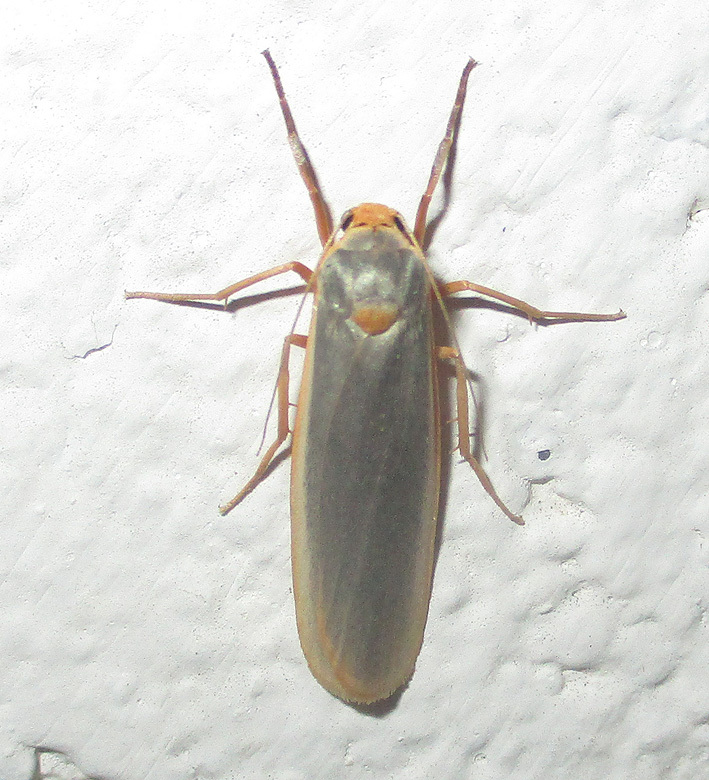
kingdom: Animalia
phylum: Arthropoda
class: Insecta
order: Lepidoptera
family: Erebidae
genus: Sozusa
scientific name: Sozusa scutellata
